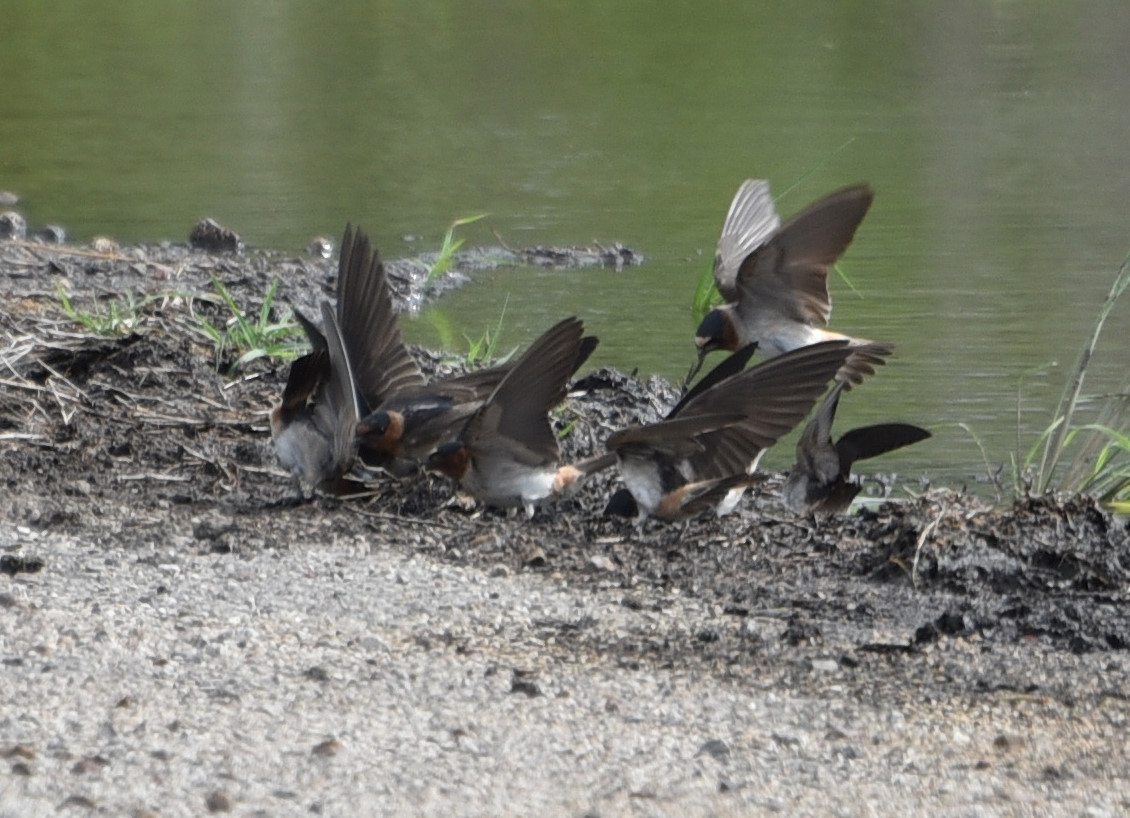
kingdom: Animalia
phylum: Chordata
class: Aves
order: Passeriformes
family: Hirundinidae
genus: Petrochelidon
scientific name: Petrochelidon pyrrhonota
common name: American cliff swallow
